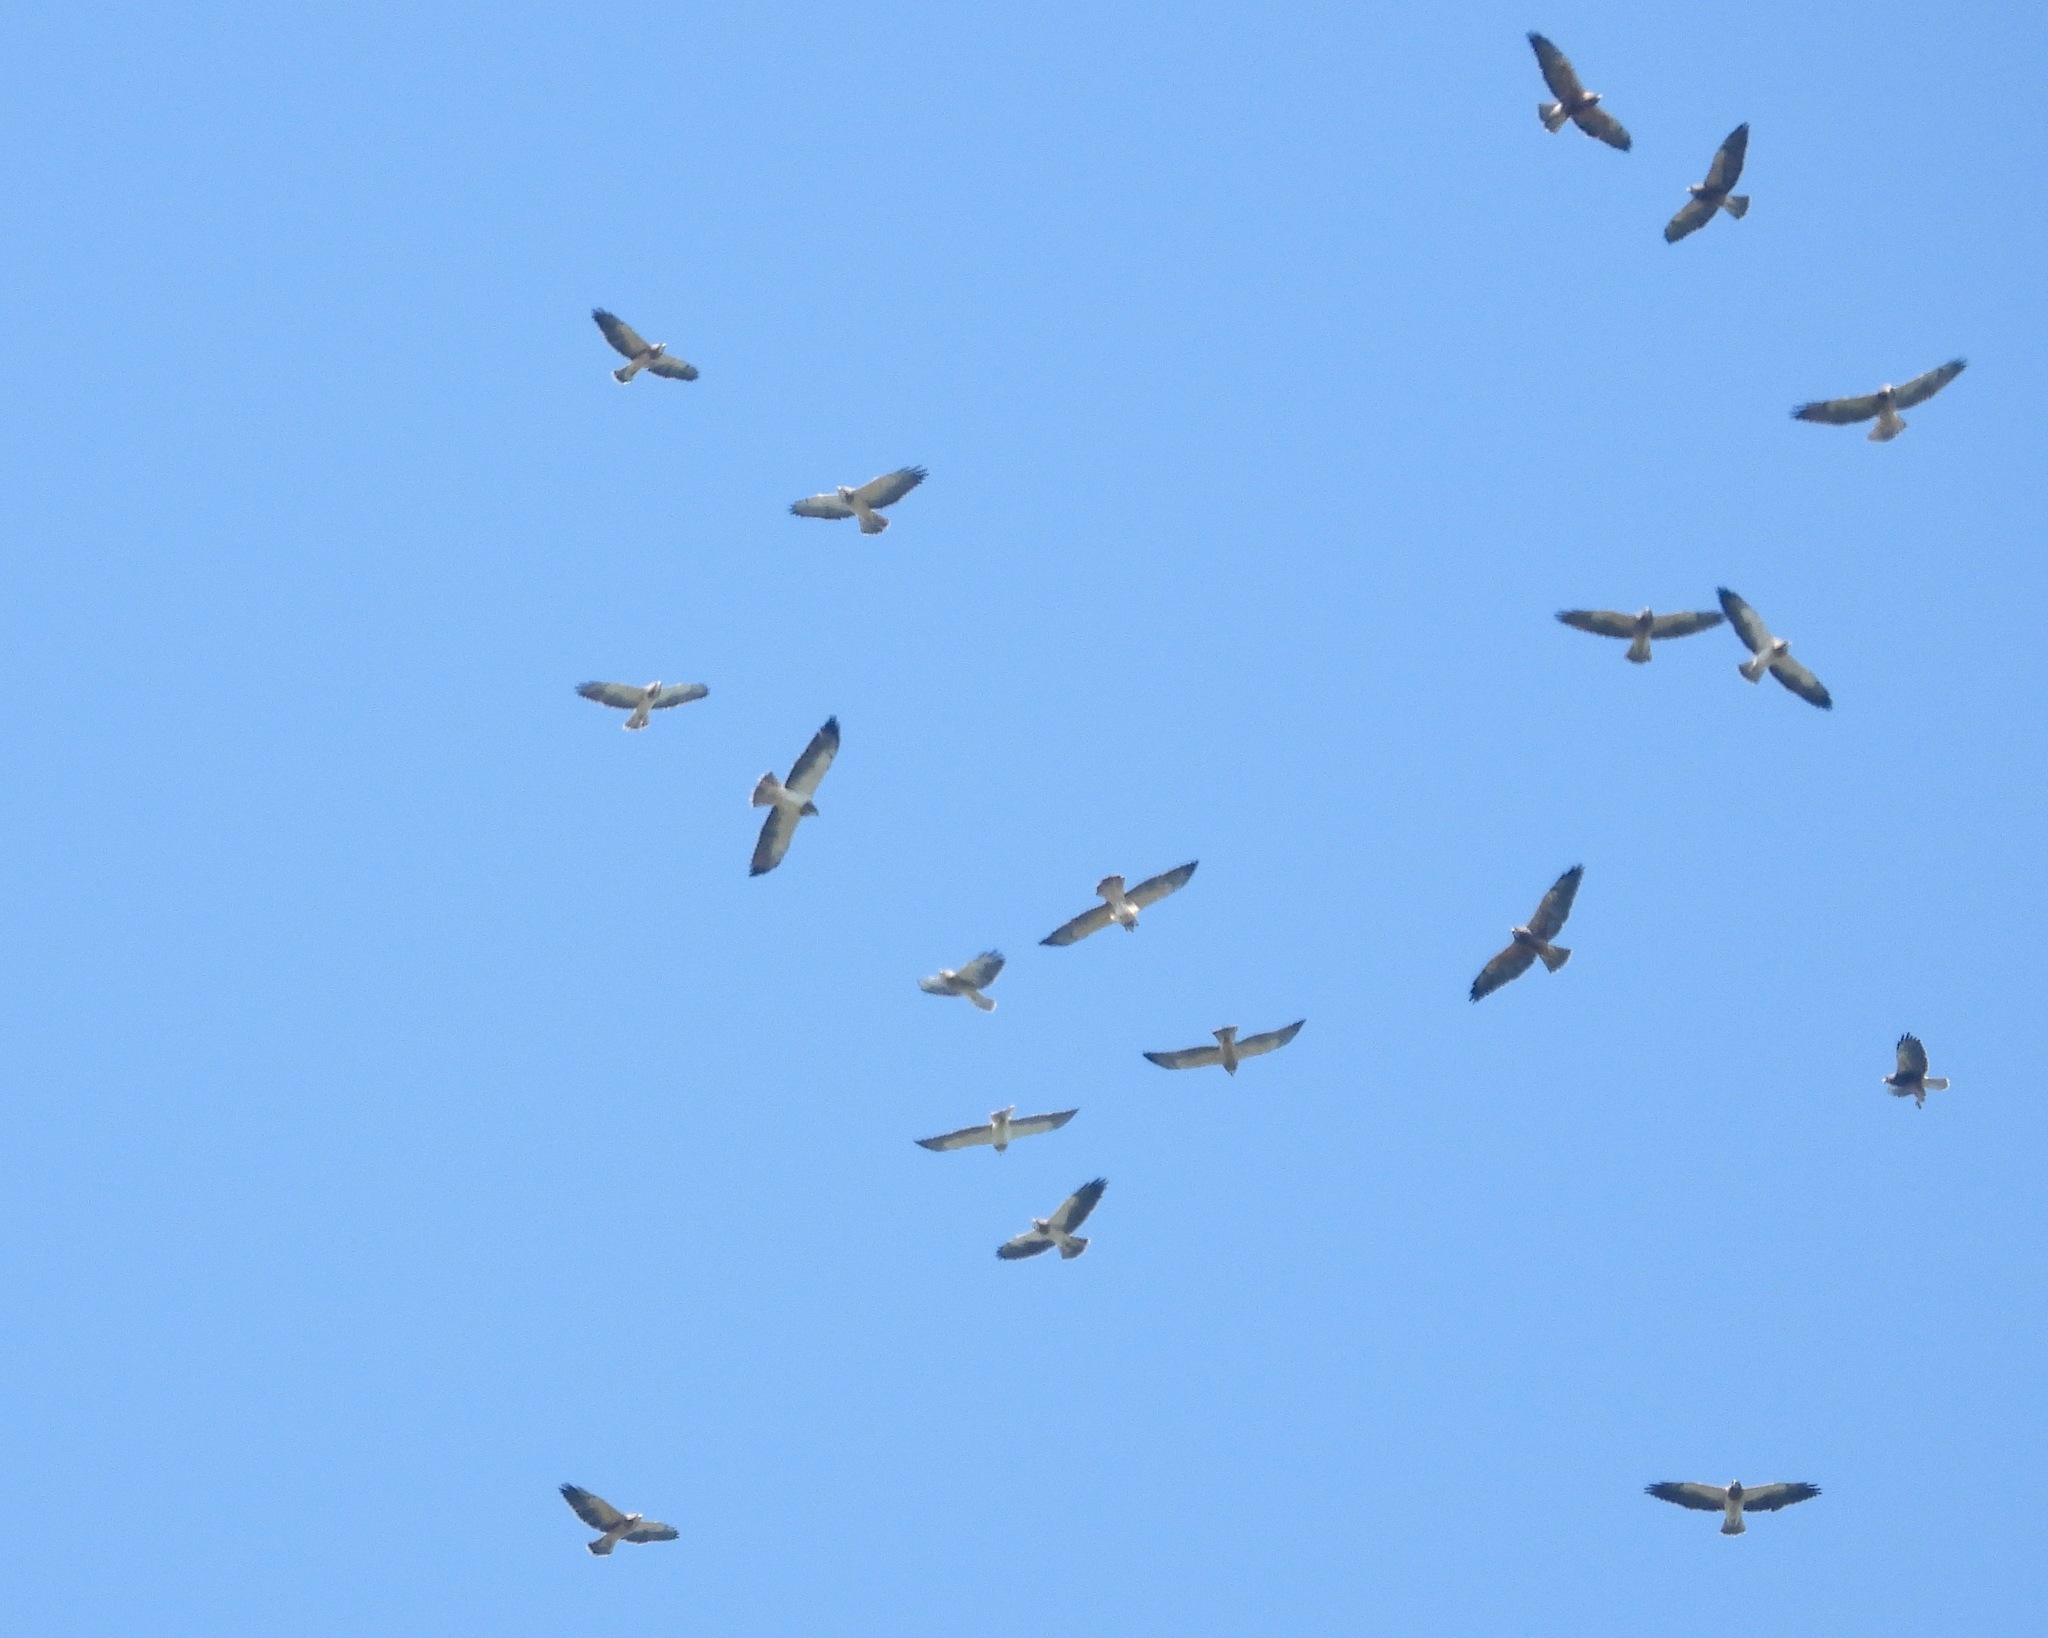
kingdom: Animalia
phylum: Chordata
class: Aves
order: Accipitriformes
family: Accipitridae
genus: Buteo
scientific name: Buteo swainsoni
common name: Swainson's hawk
